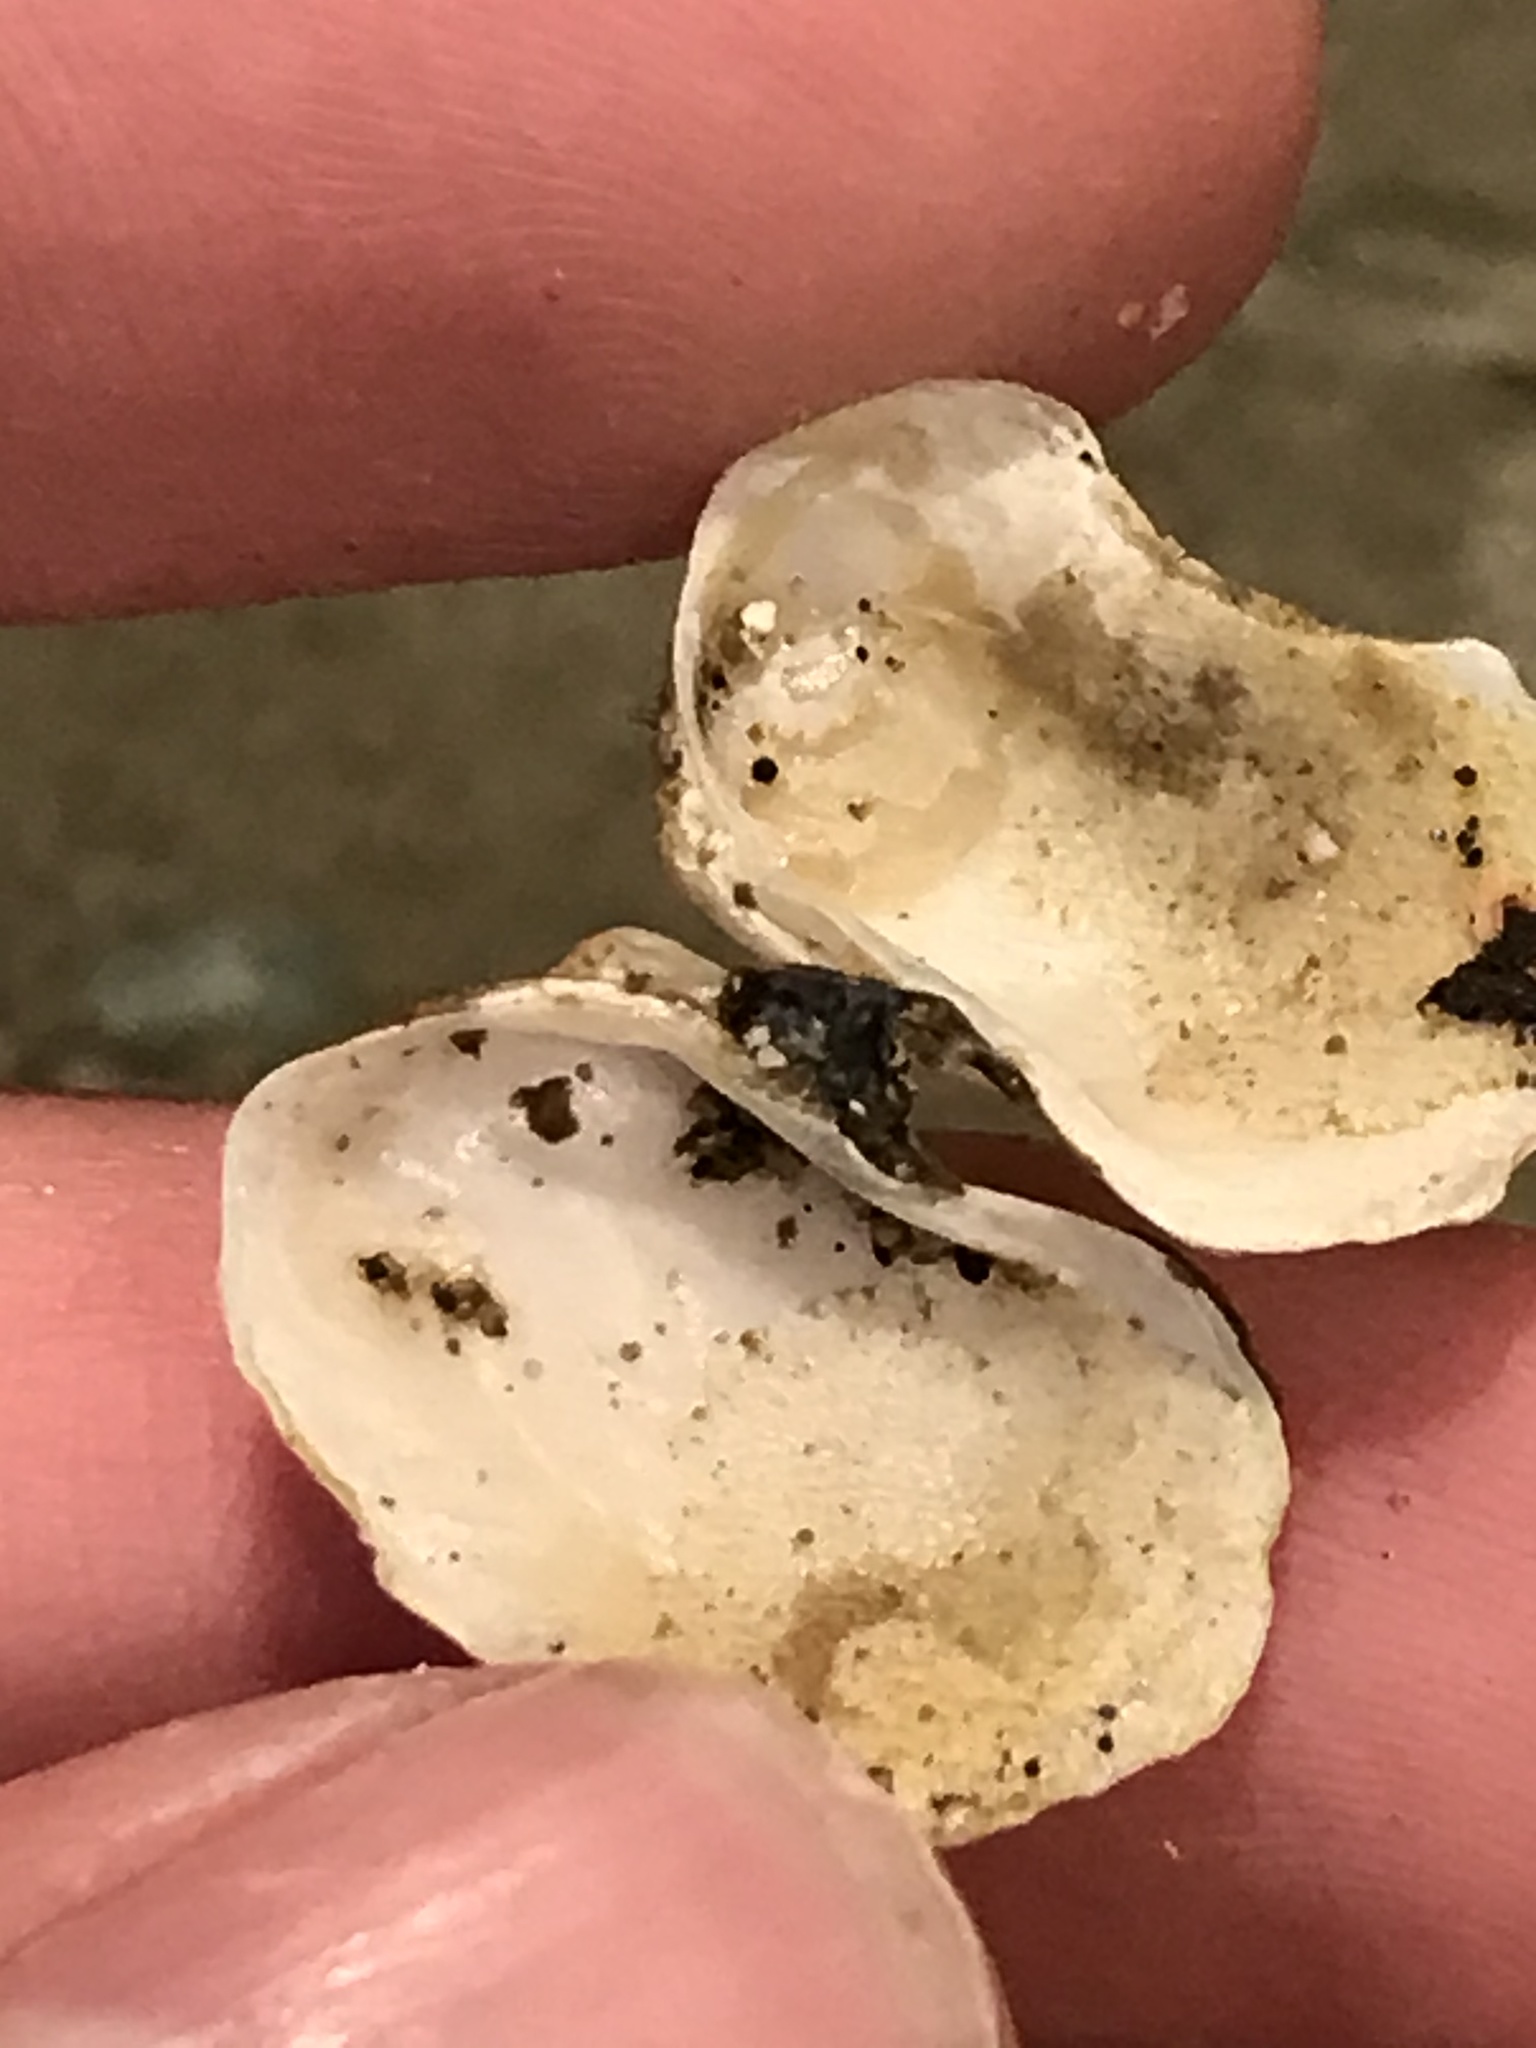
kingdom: Animalia
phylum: Mollusca
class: Bivalvia
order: Adapedonta
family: Hiatellidae
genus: Hiatella
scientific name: Hiatella arctica
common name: Arctic hiatella
